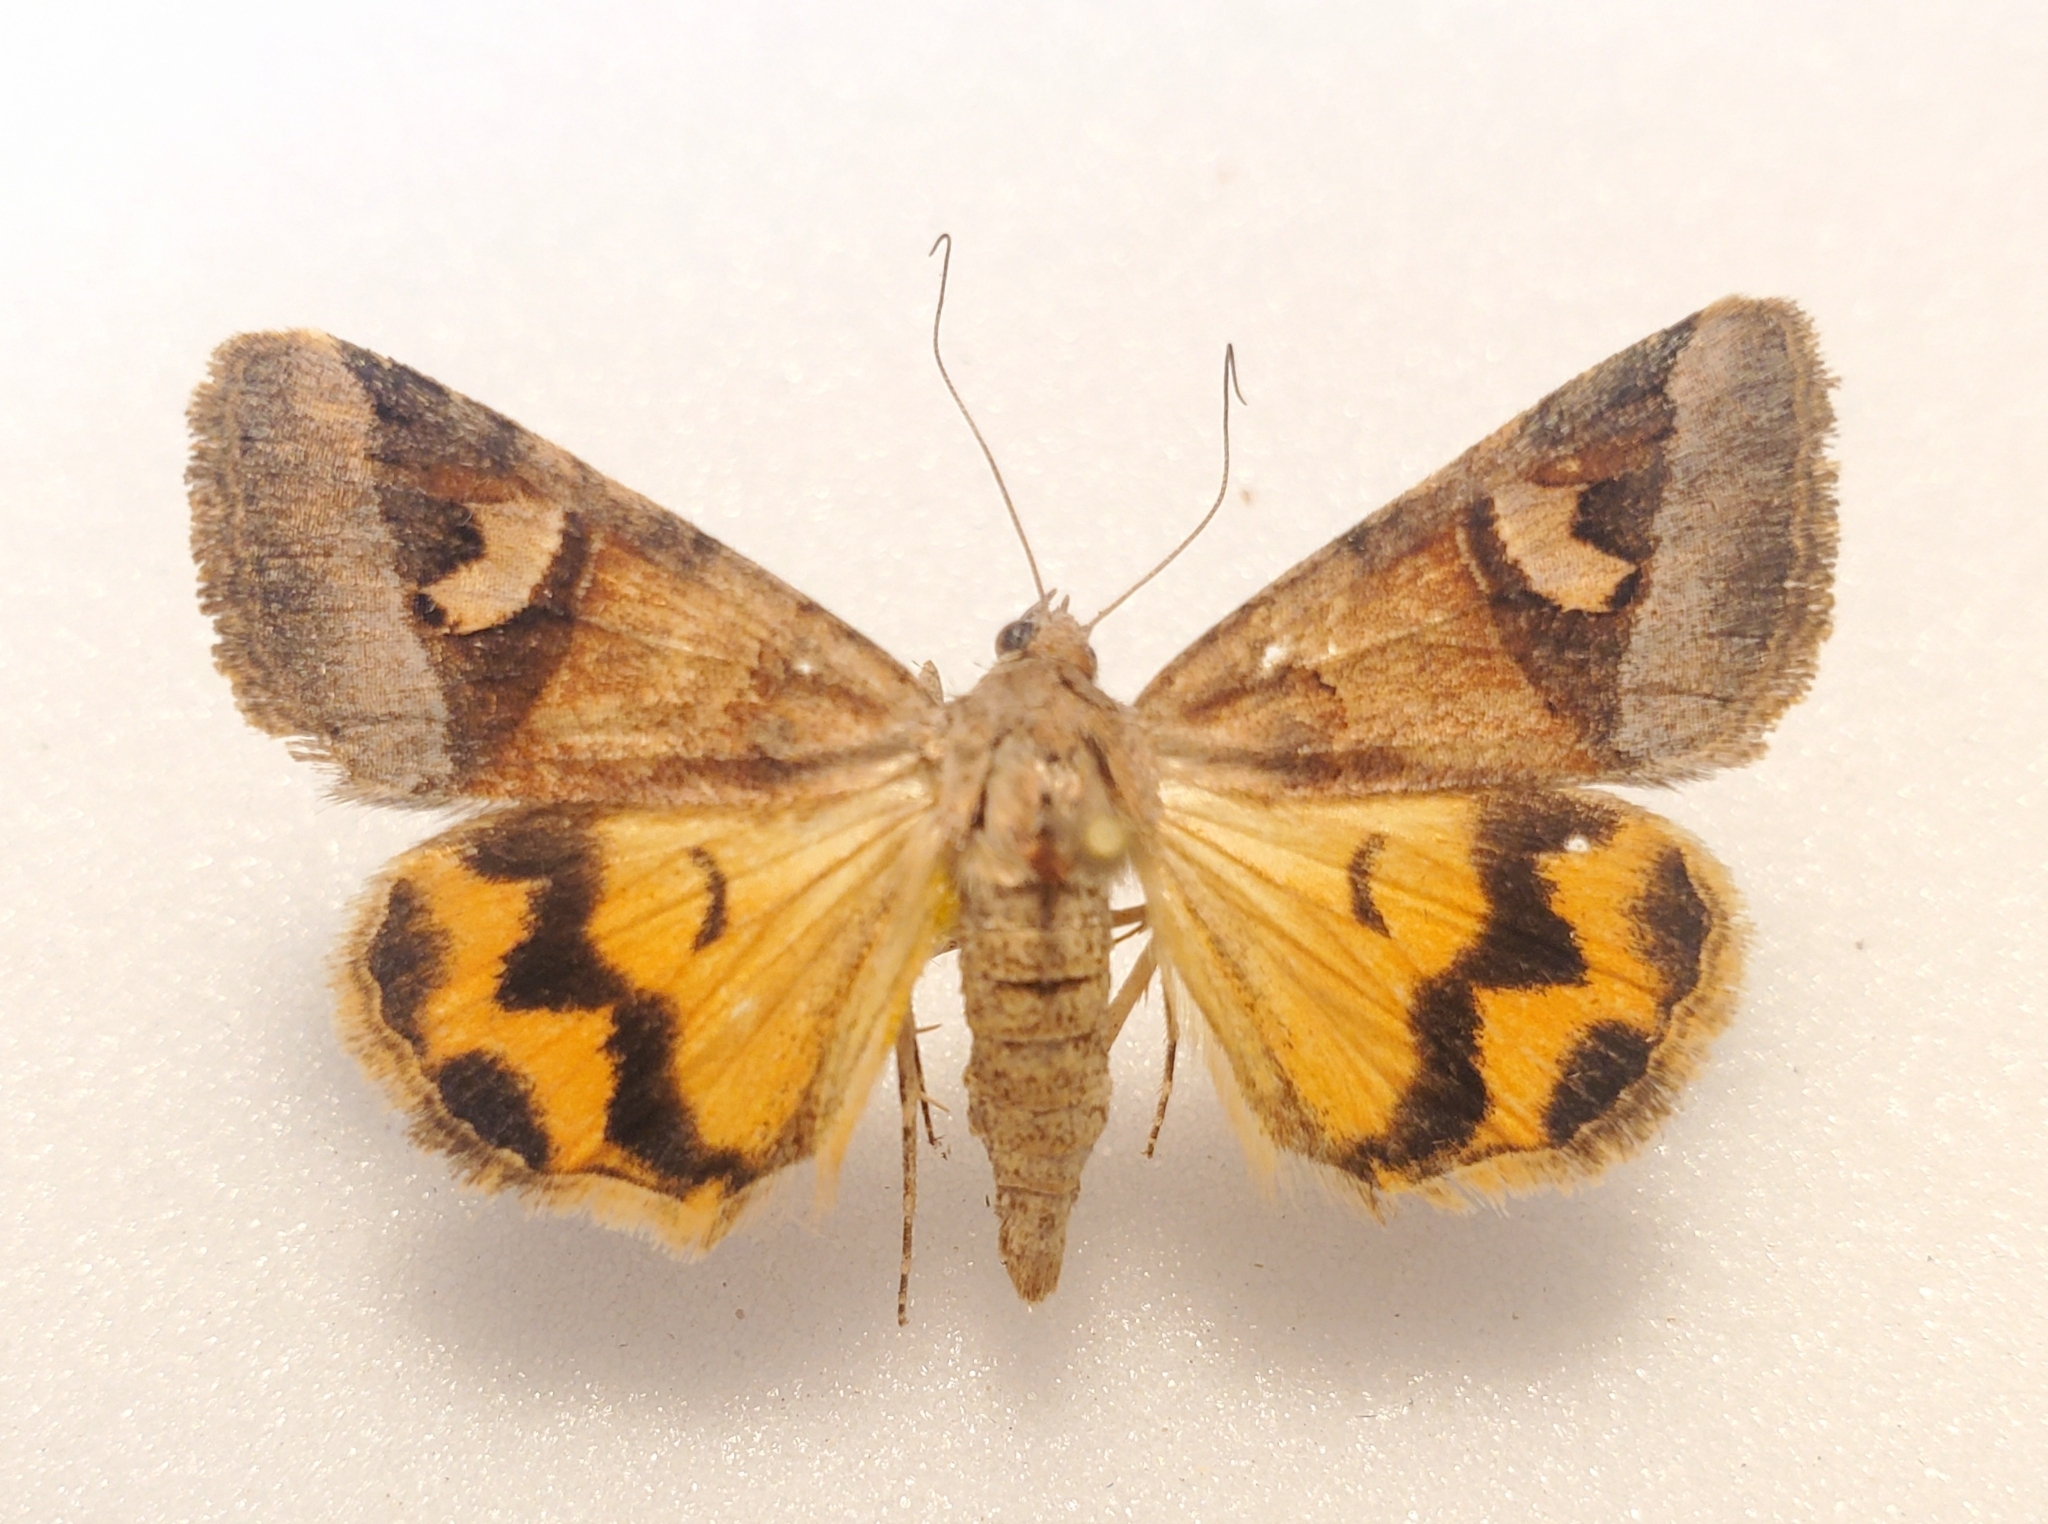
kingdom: Animalia
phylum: Arthropoda
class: Insecta
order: Lepidoptera
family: Erebidae
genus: Drasteria
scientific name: Drasteria perplexa
